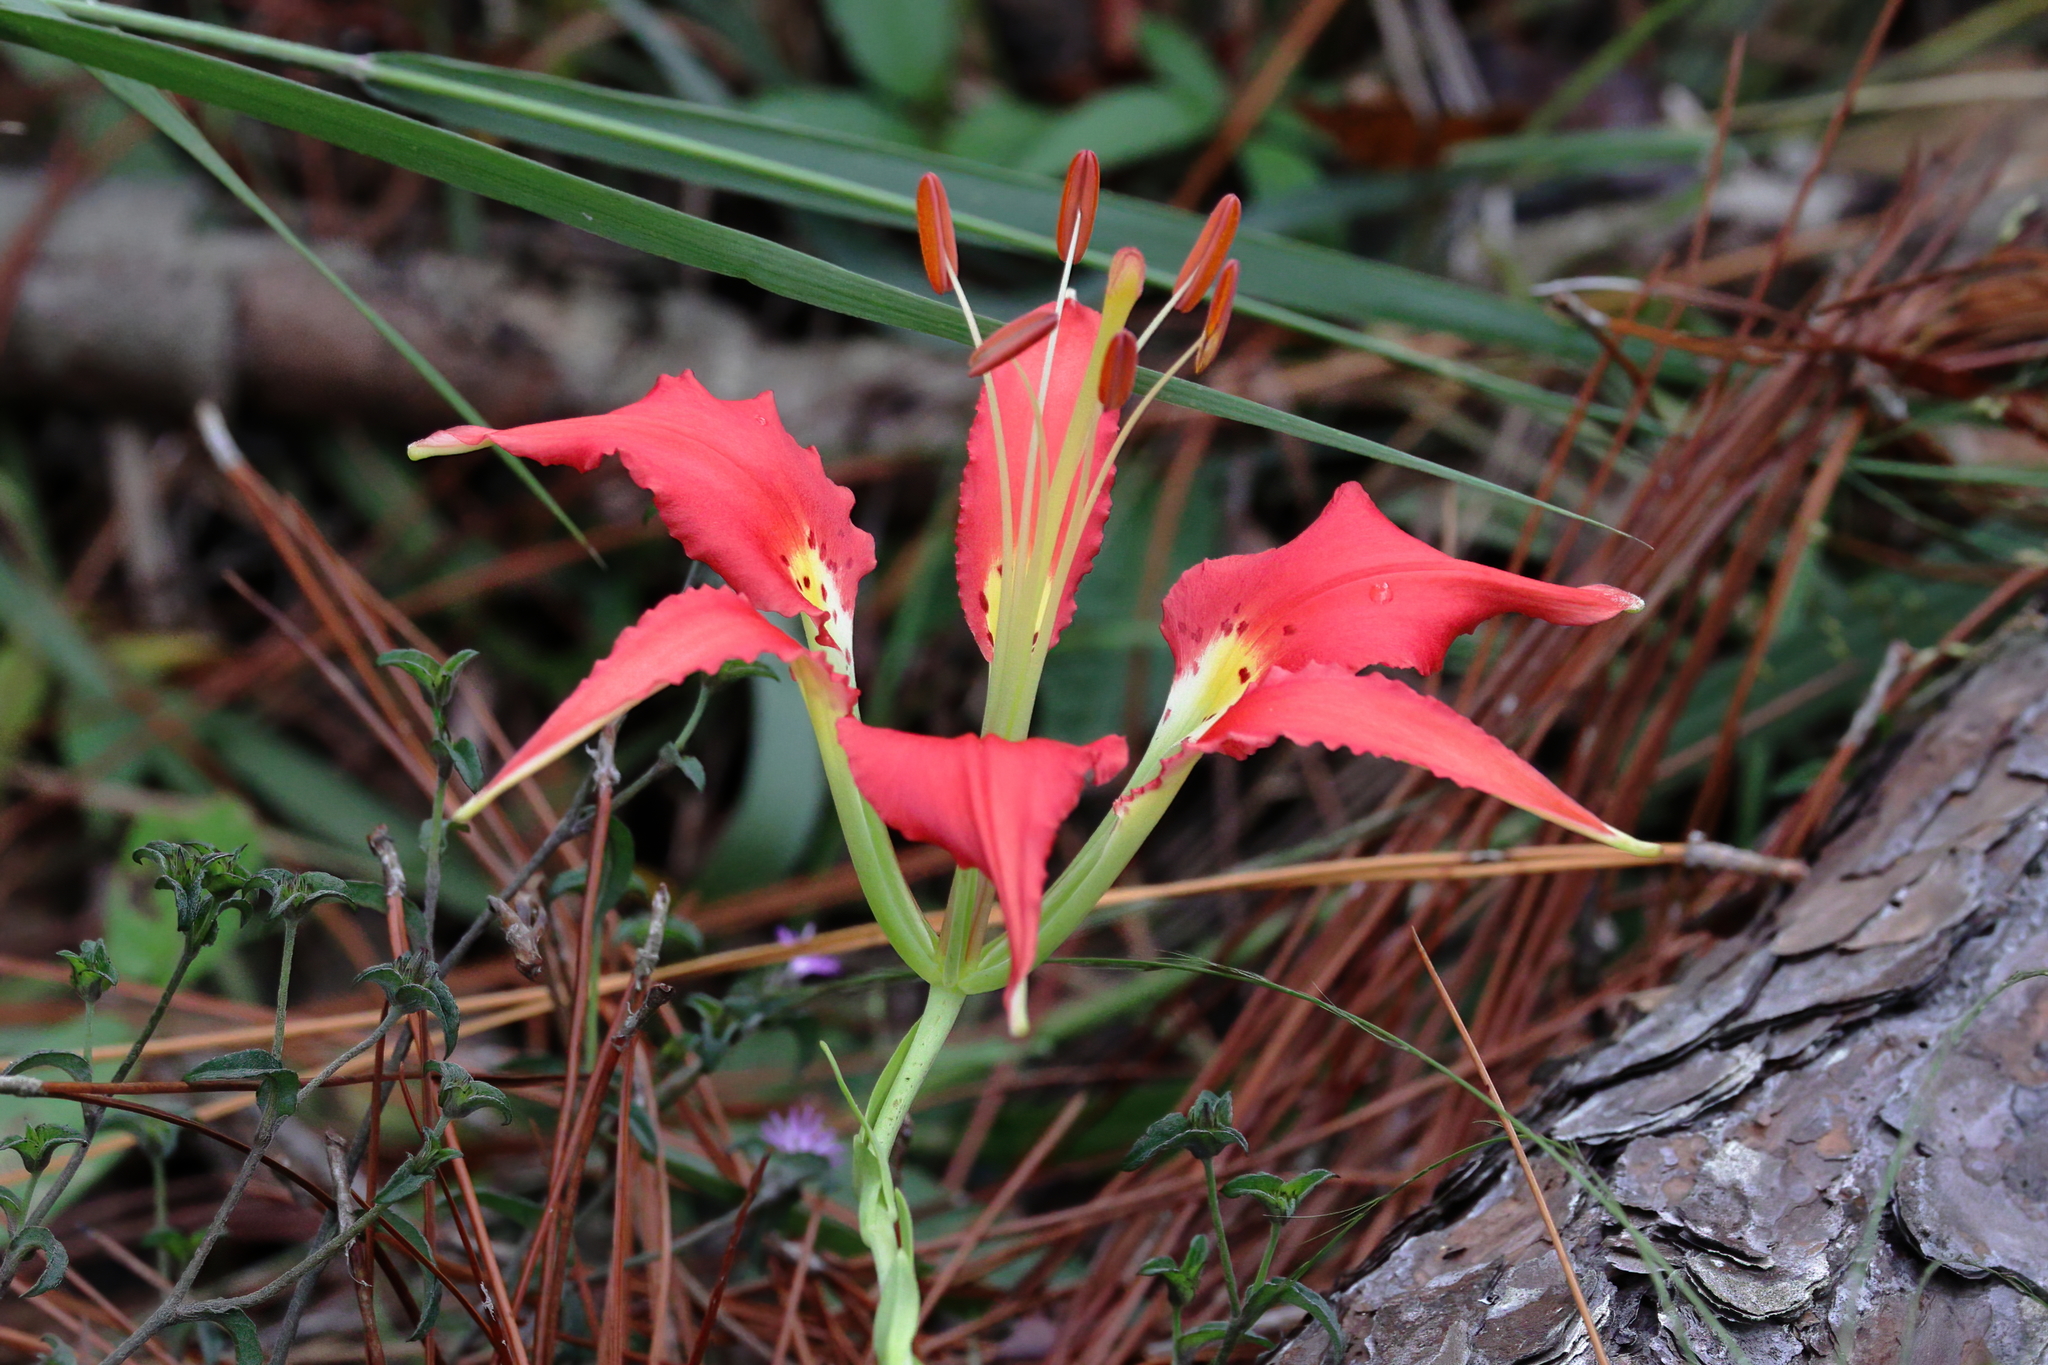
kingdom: Plantae
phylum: Tracheophyta
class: Liliopsida
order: Liliales
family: Liliaceae
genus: Lilium
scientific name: Lilium catesbaei
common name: Catesby's lily
